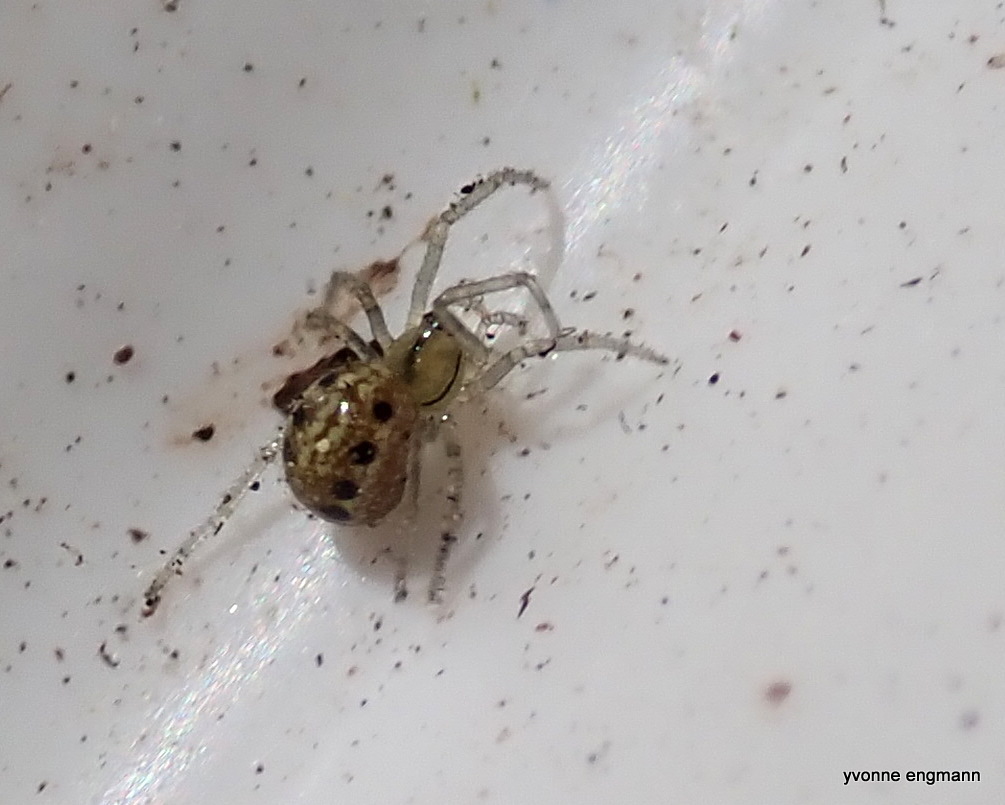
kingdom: Animalia
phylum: Arthropoda
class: Arachnida
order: Araneae
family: Theridiidae
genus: Enoplognatha
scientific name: Enoplognatha ovata
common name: Common candy-striped spider
